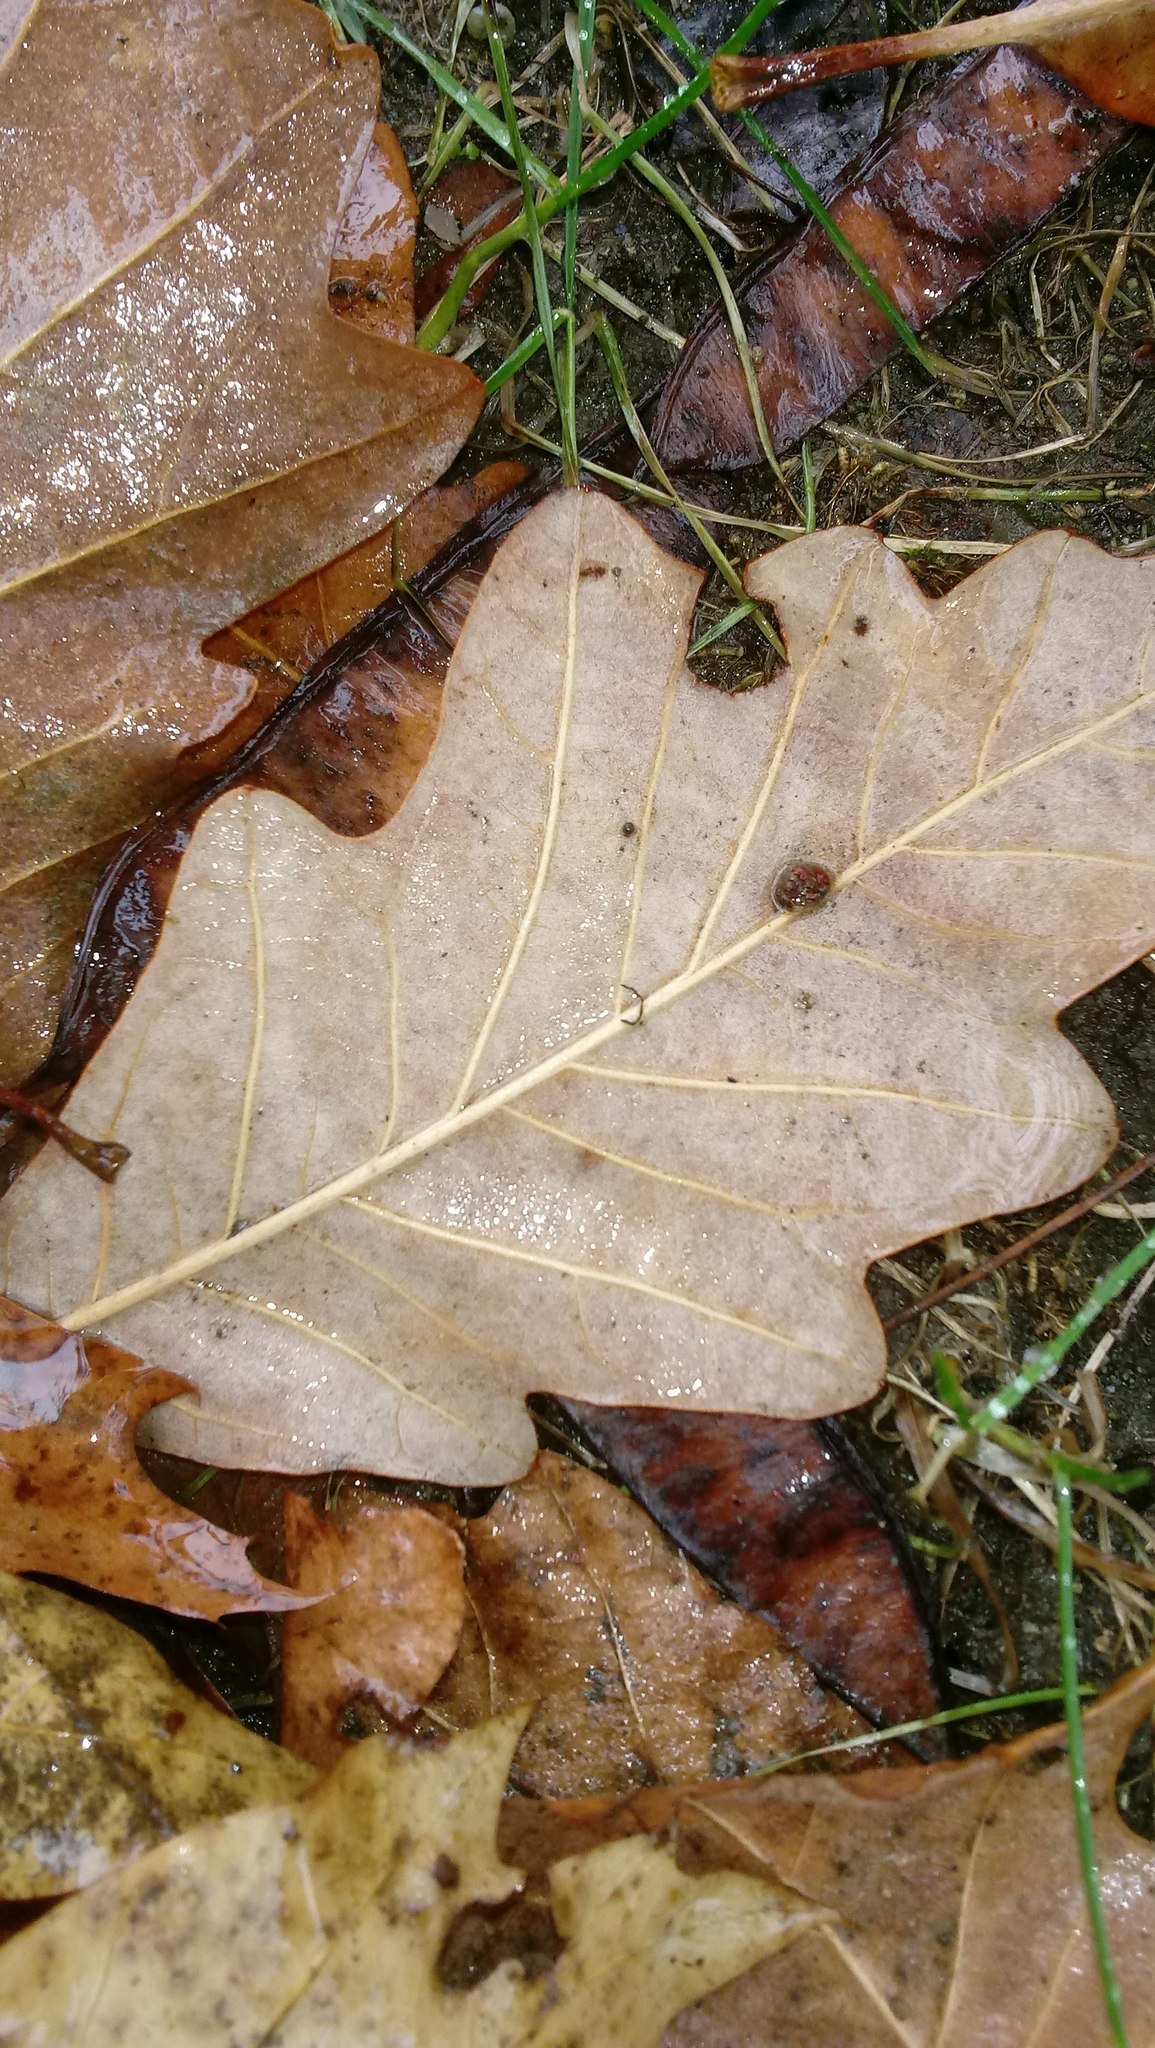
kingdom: Animalia
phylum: Arthropoda
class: Insecta
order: Hymenoptera
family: Cynipidae
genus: Andricus
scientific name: Andricus Druon ignotum
